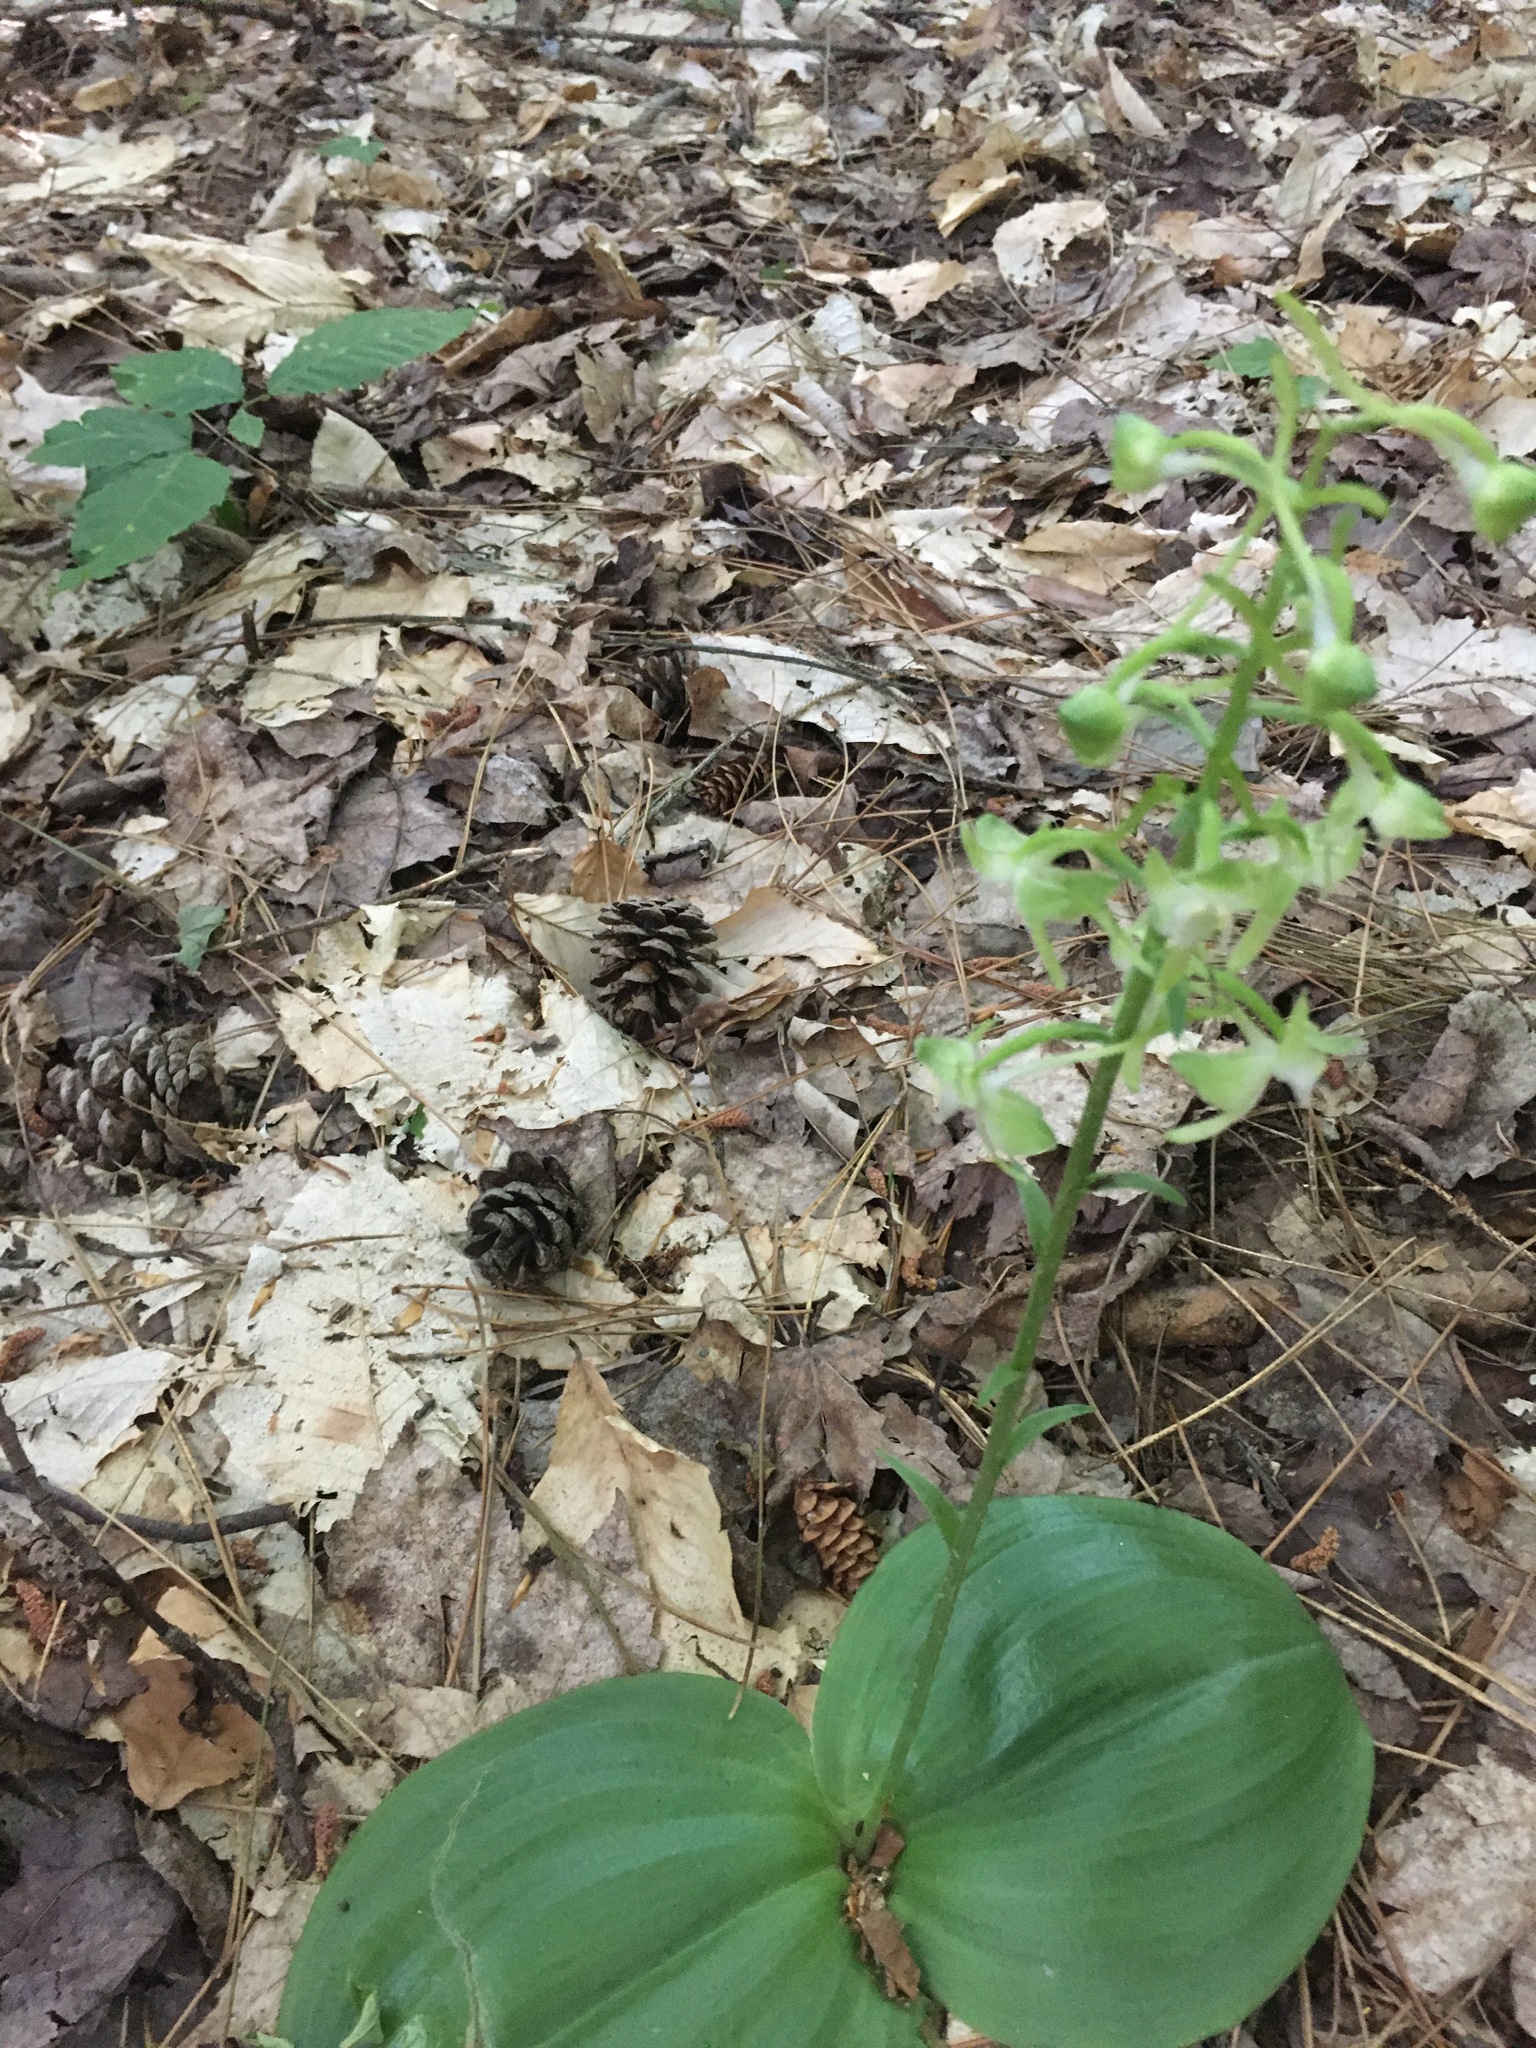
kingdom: Plantae
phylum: Tracheophyta
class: Liliopsida
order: Asparagales
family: Orchidaceae
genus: Platanthera
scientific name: Platanthera orbiculata
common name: Large round-leaved orchid
